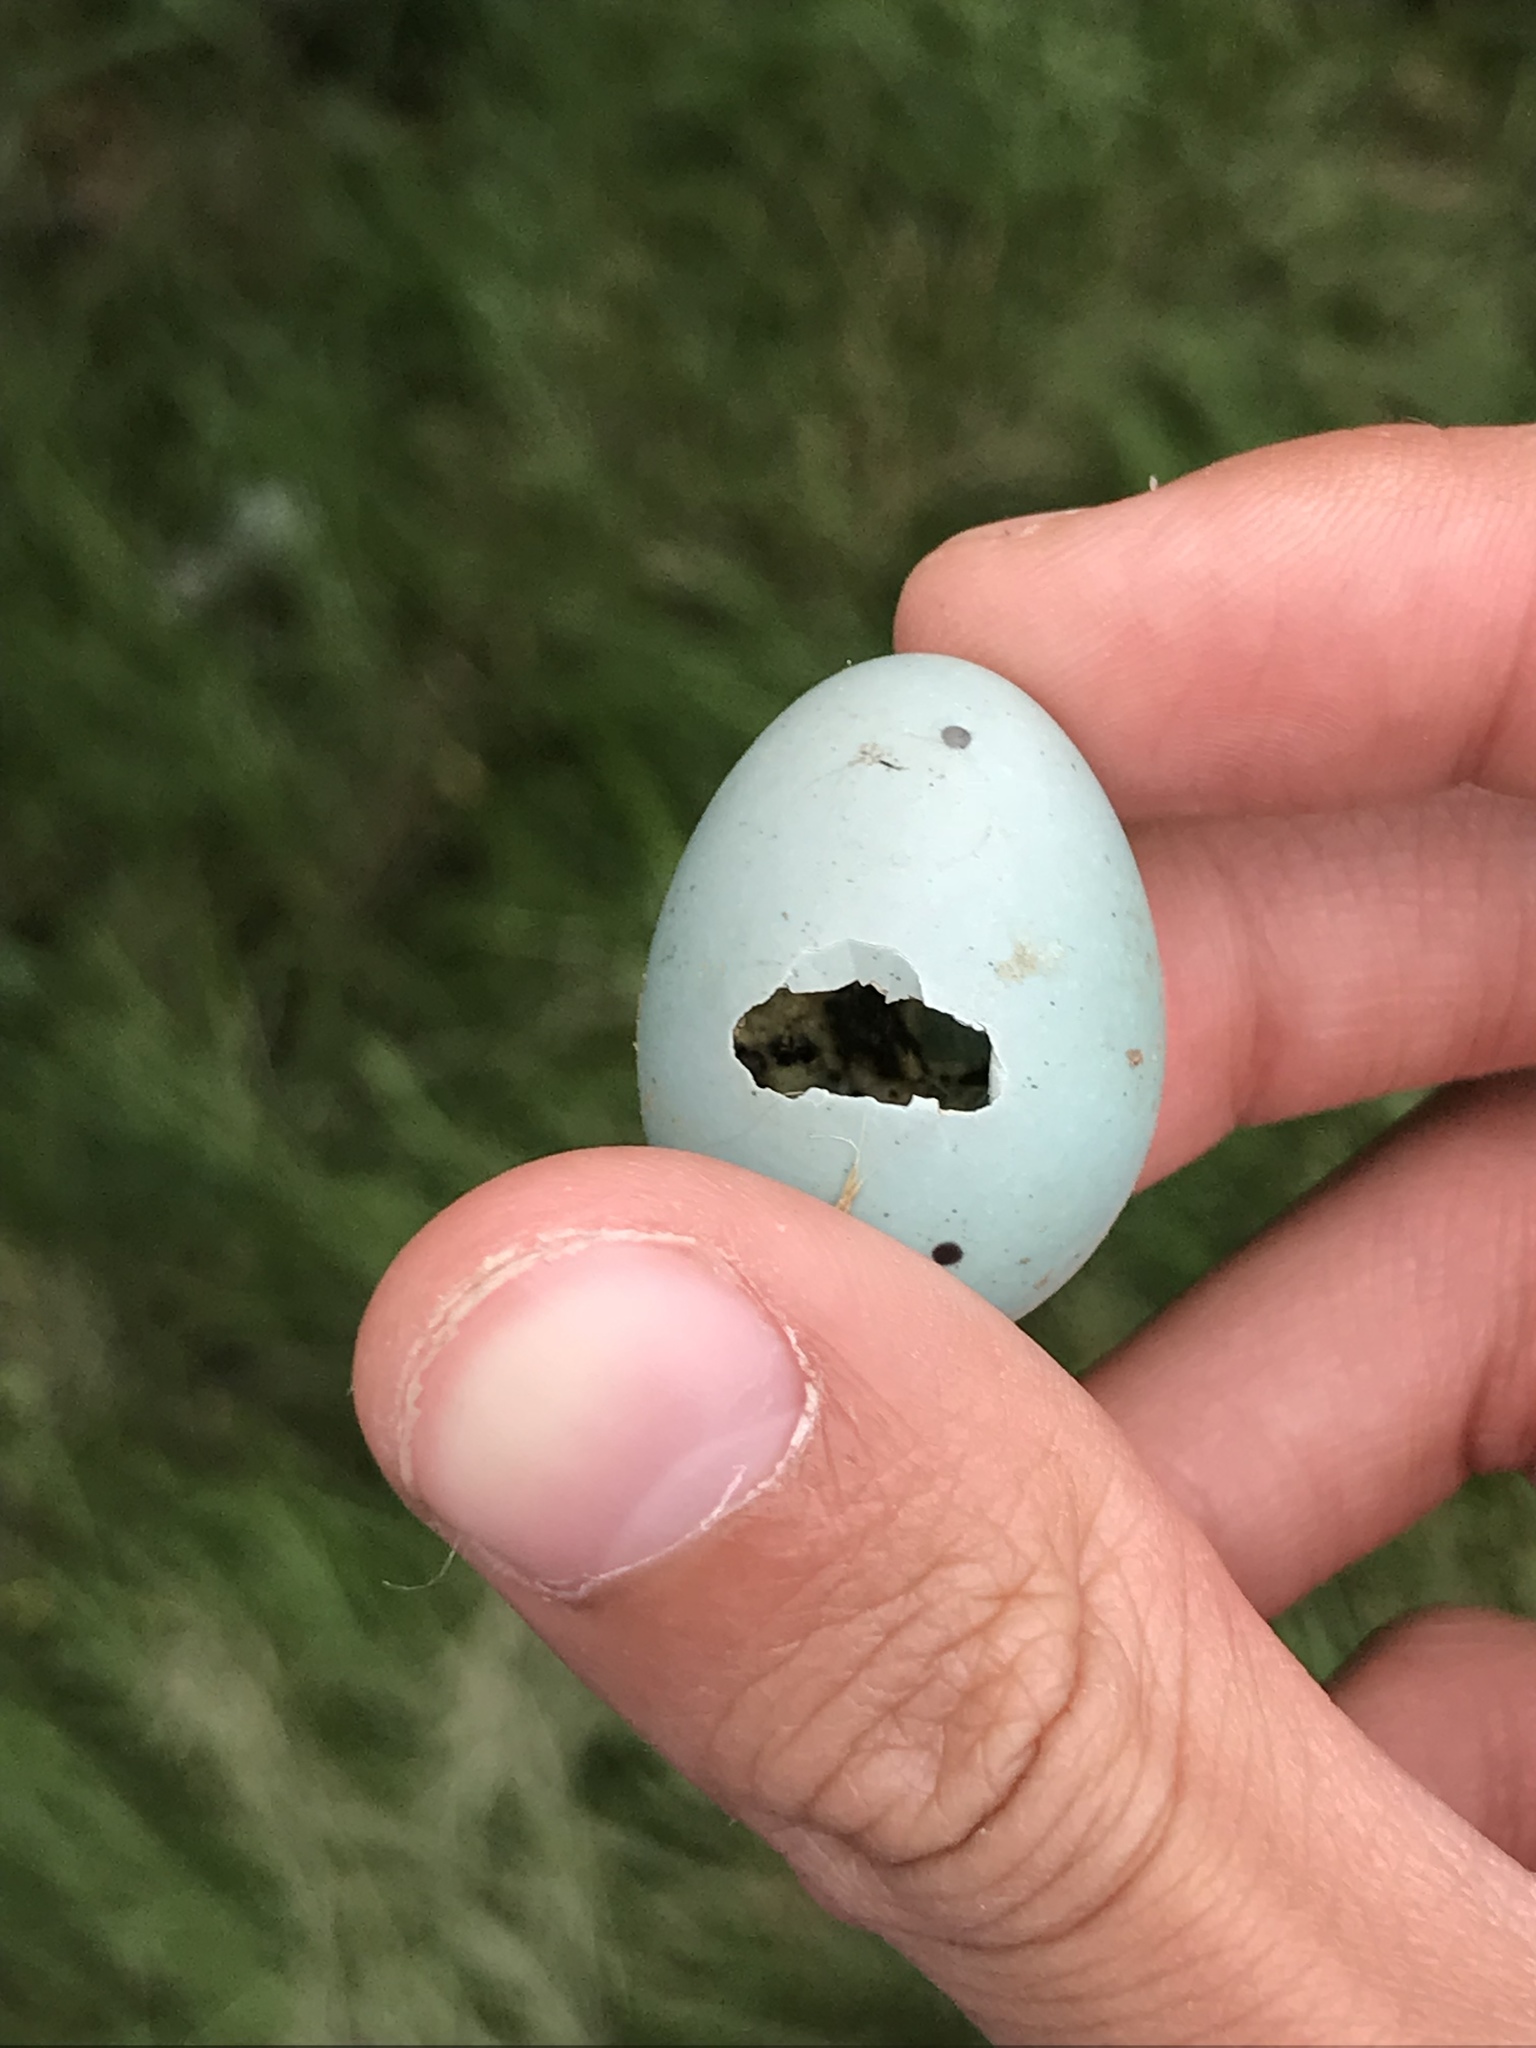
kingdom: Animalia
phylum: Chordata
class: Aves
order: Passeriformes
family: Turdidae
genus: Turdus
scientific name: Turdus migratorius
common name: American robin
